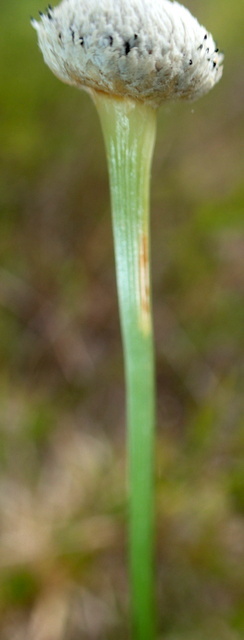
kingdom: Plantae
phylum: Tracheophyta
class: Liliopsida
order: Poales
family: Eriocaulaceae
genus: Eriocaulon
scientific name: Eriocaulon decangulare
